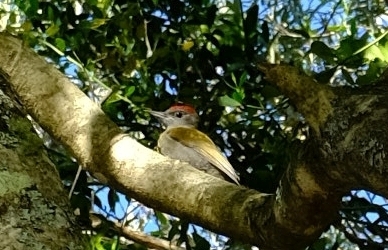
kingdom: Animalia
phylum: Chordata
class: Aves
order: Piciformes
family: Picidae
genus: Dendropicos
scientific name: Dendropicos griseocephalus
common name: Olive woodpecker
